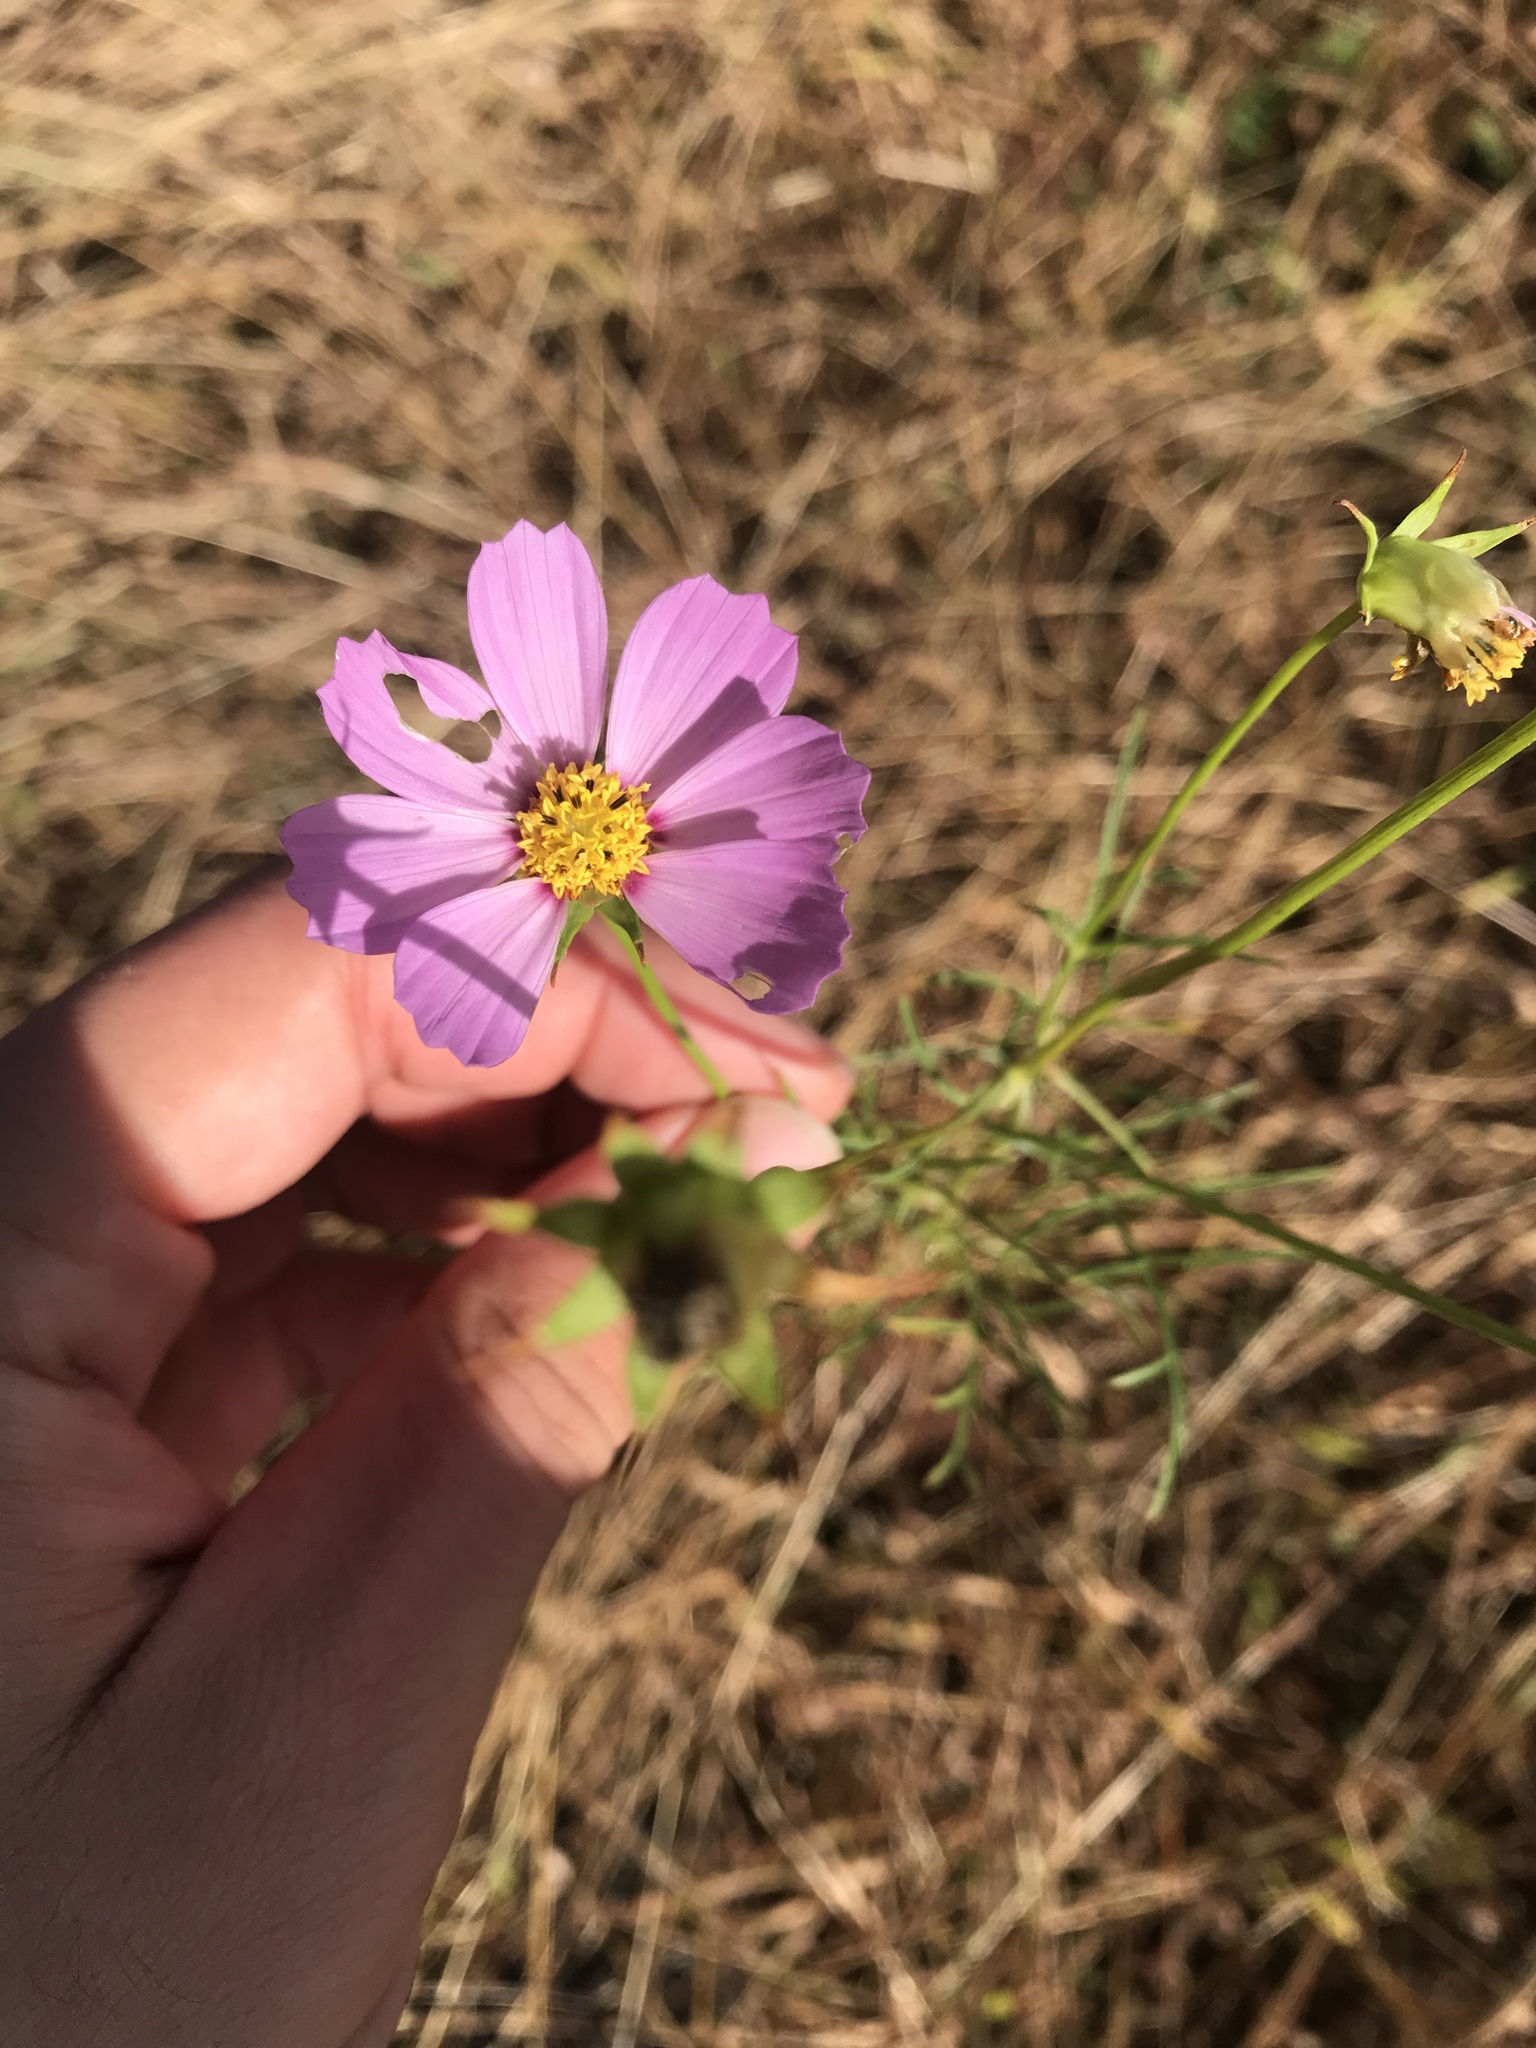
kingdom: Plantae
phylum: Tracheophyta
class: Magnoliopsida
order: Asterales
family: Asteraceae
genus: Cosmos
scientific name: Cosmos bipinnatus
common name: Garden cosmos
